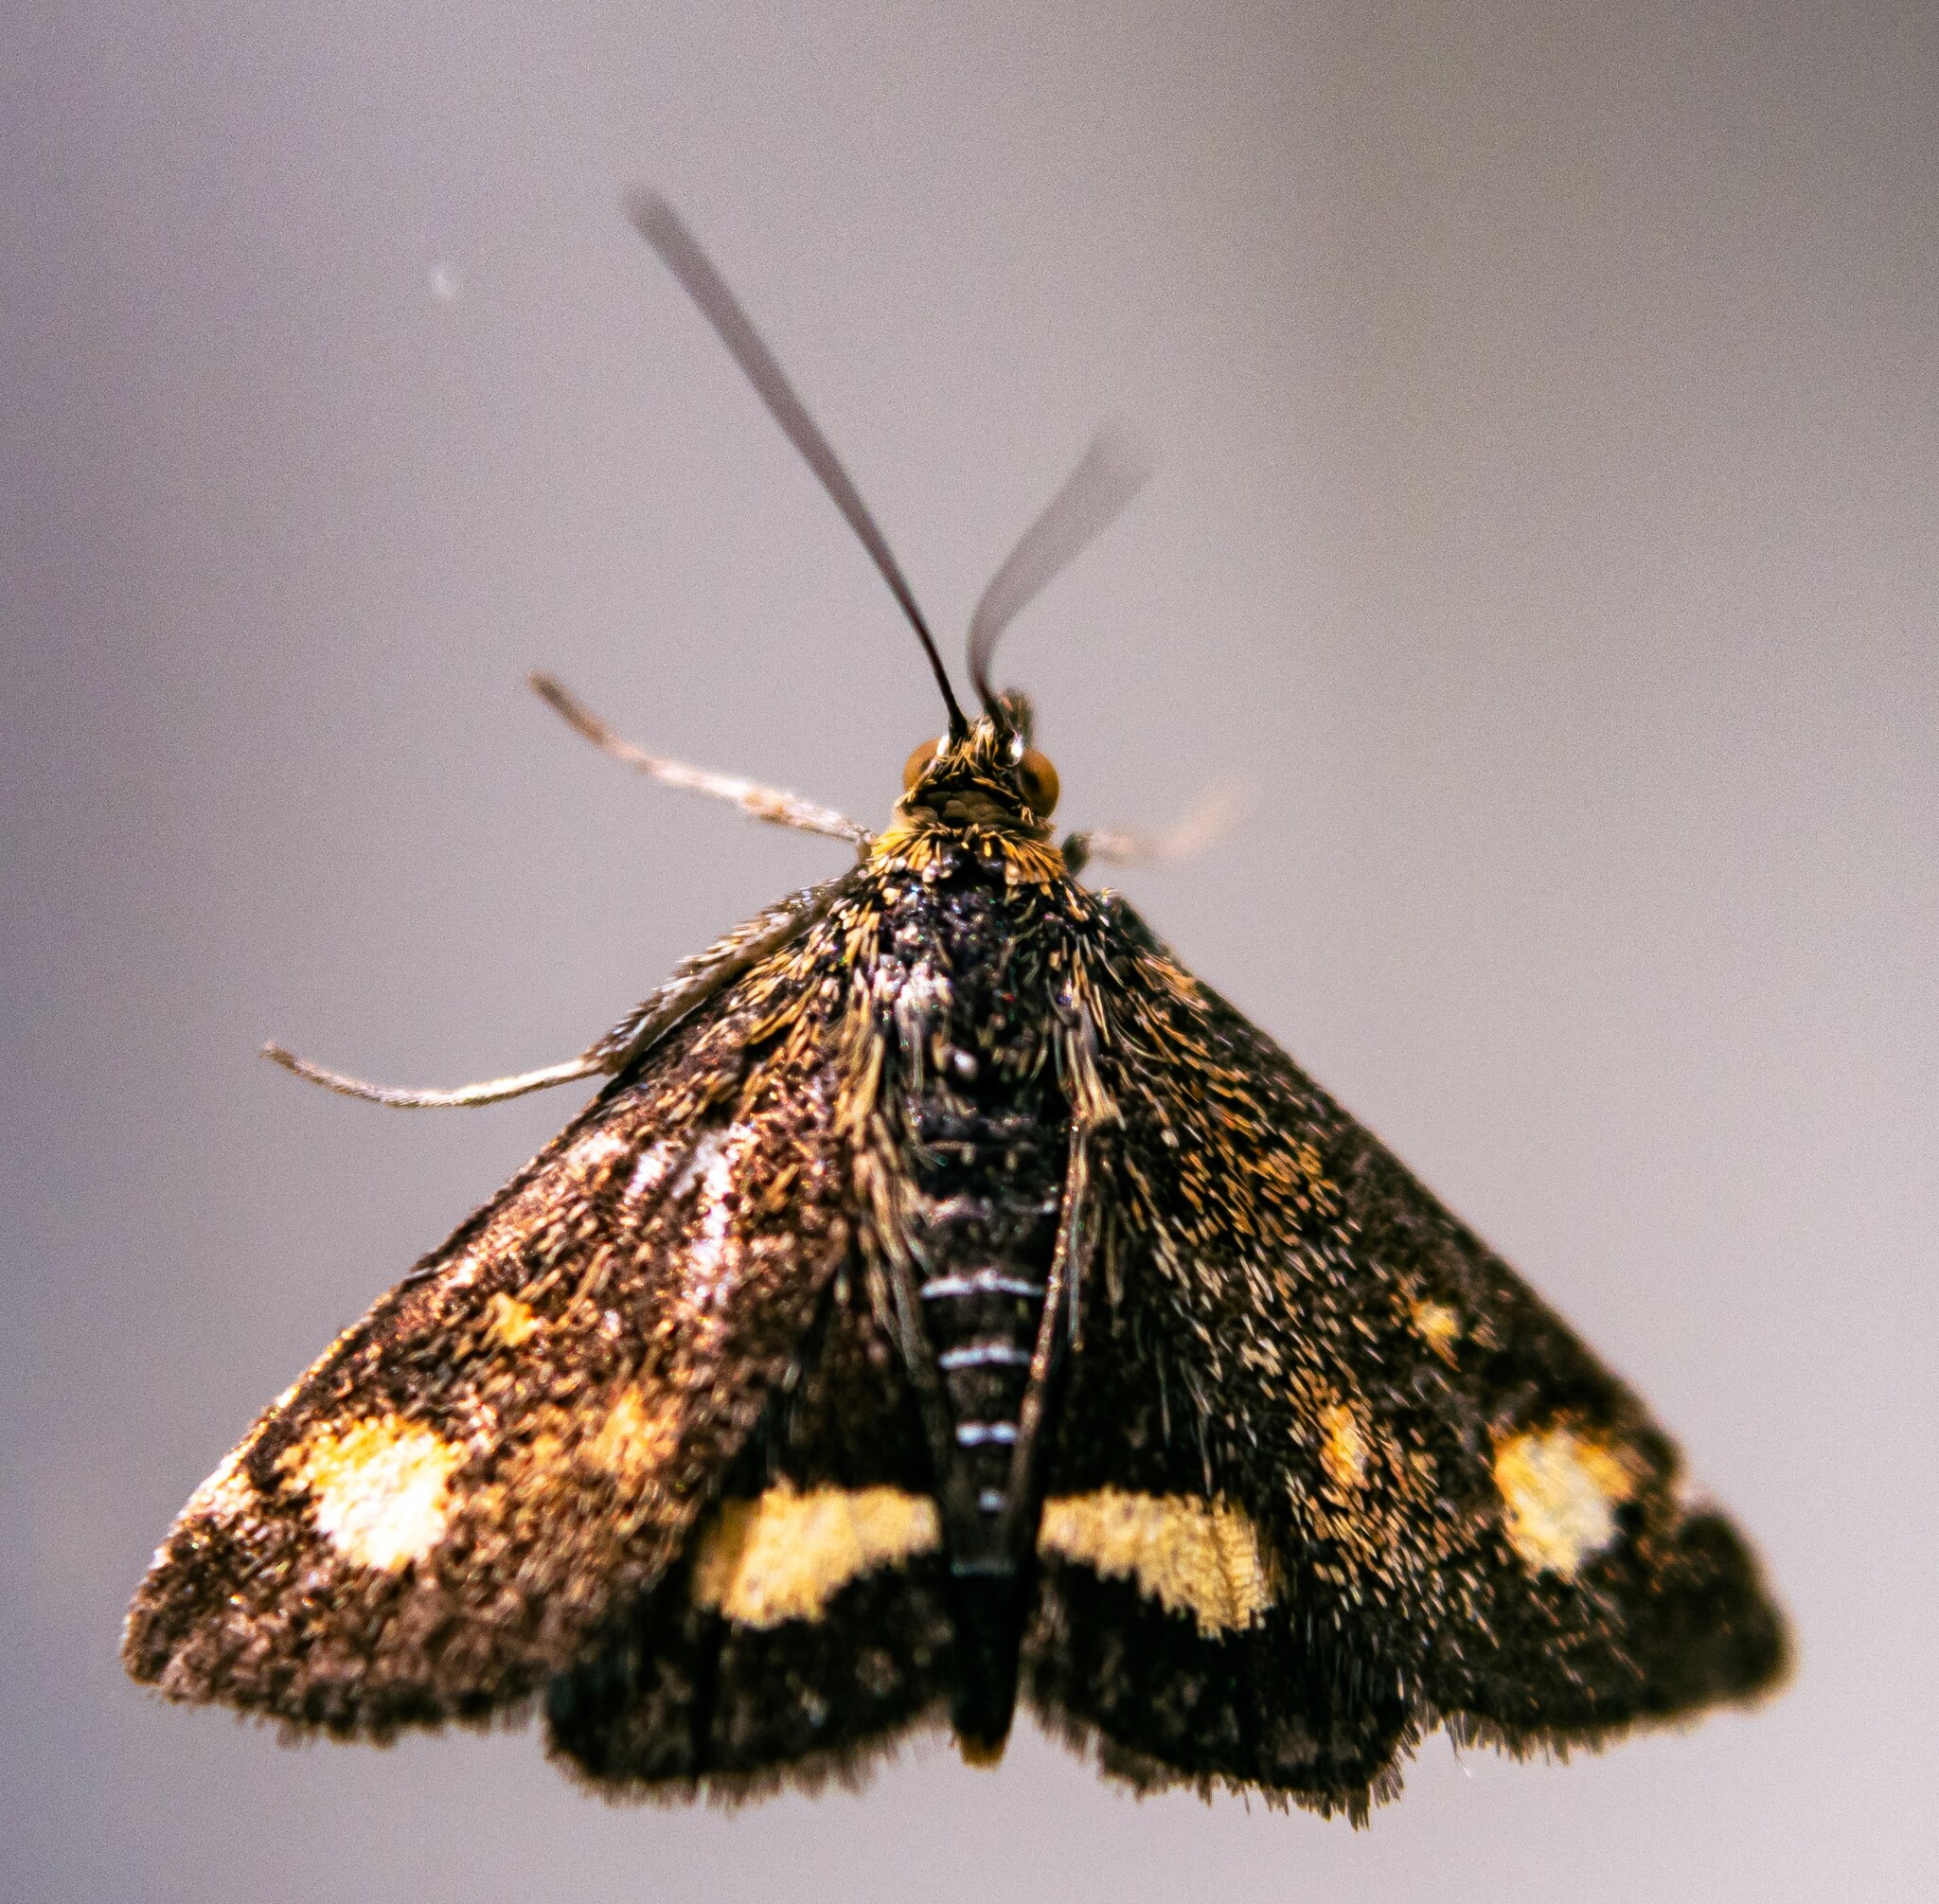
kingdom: Animalia
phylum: Arthropoda
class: Insecta
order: Lepidoptera
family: Crambidae
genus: Pyrausta
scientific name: Pyrausta aurata
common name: Small purple & gold
